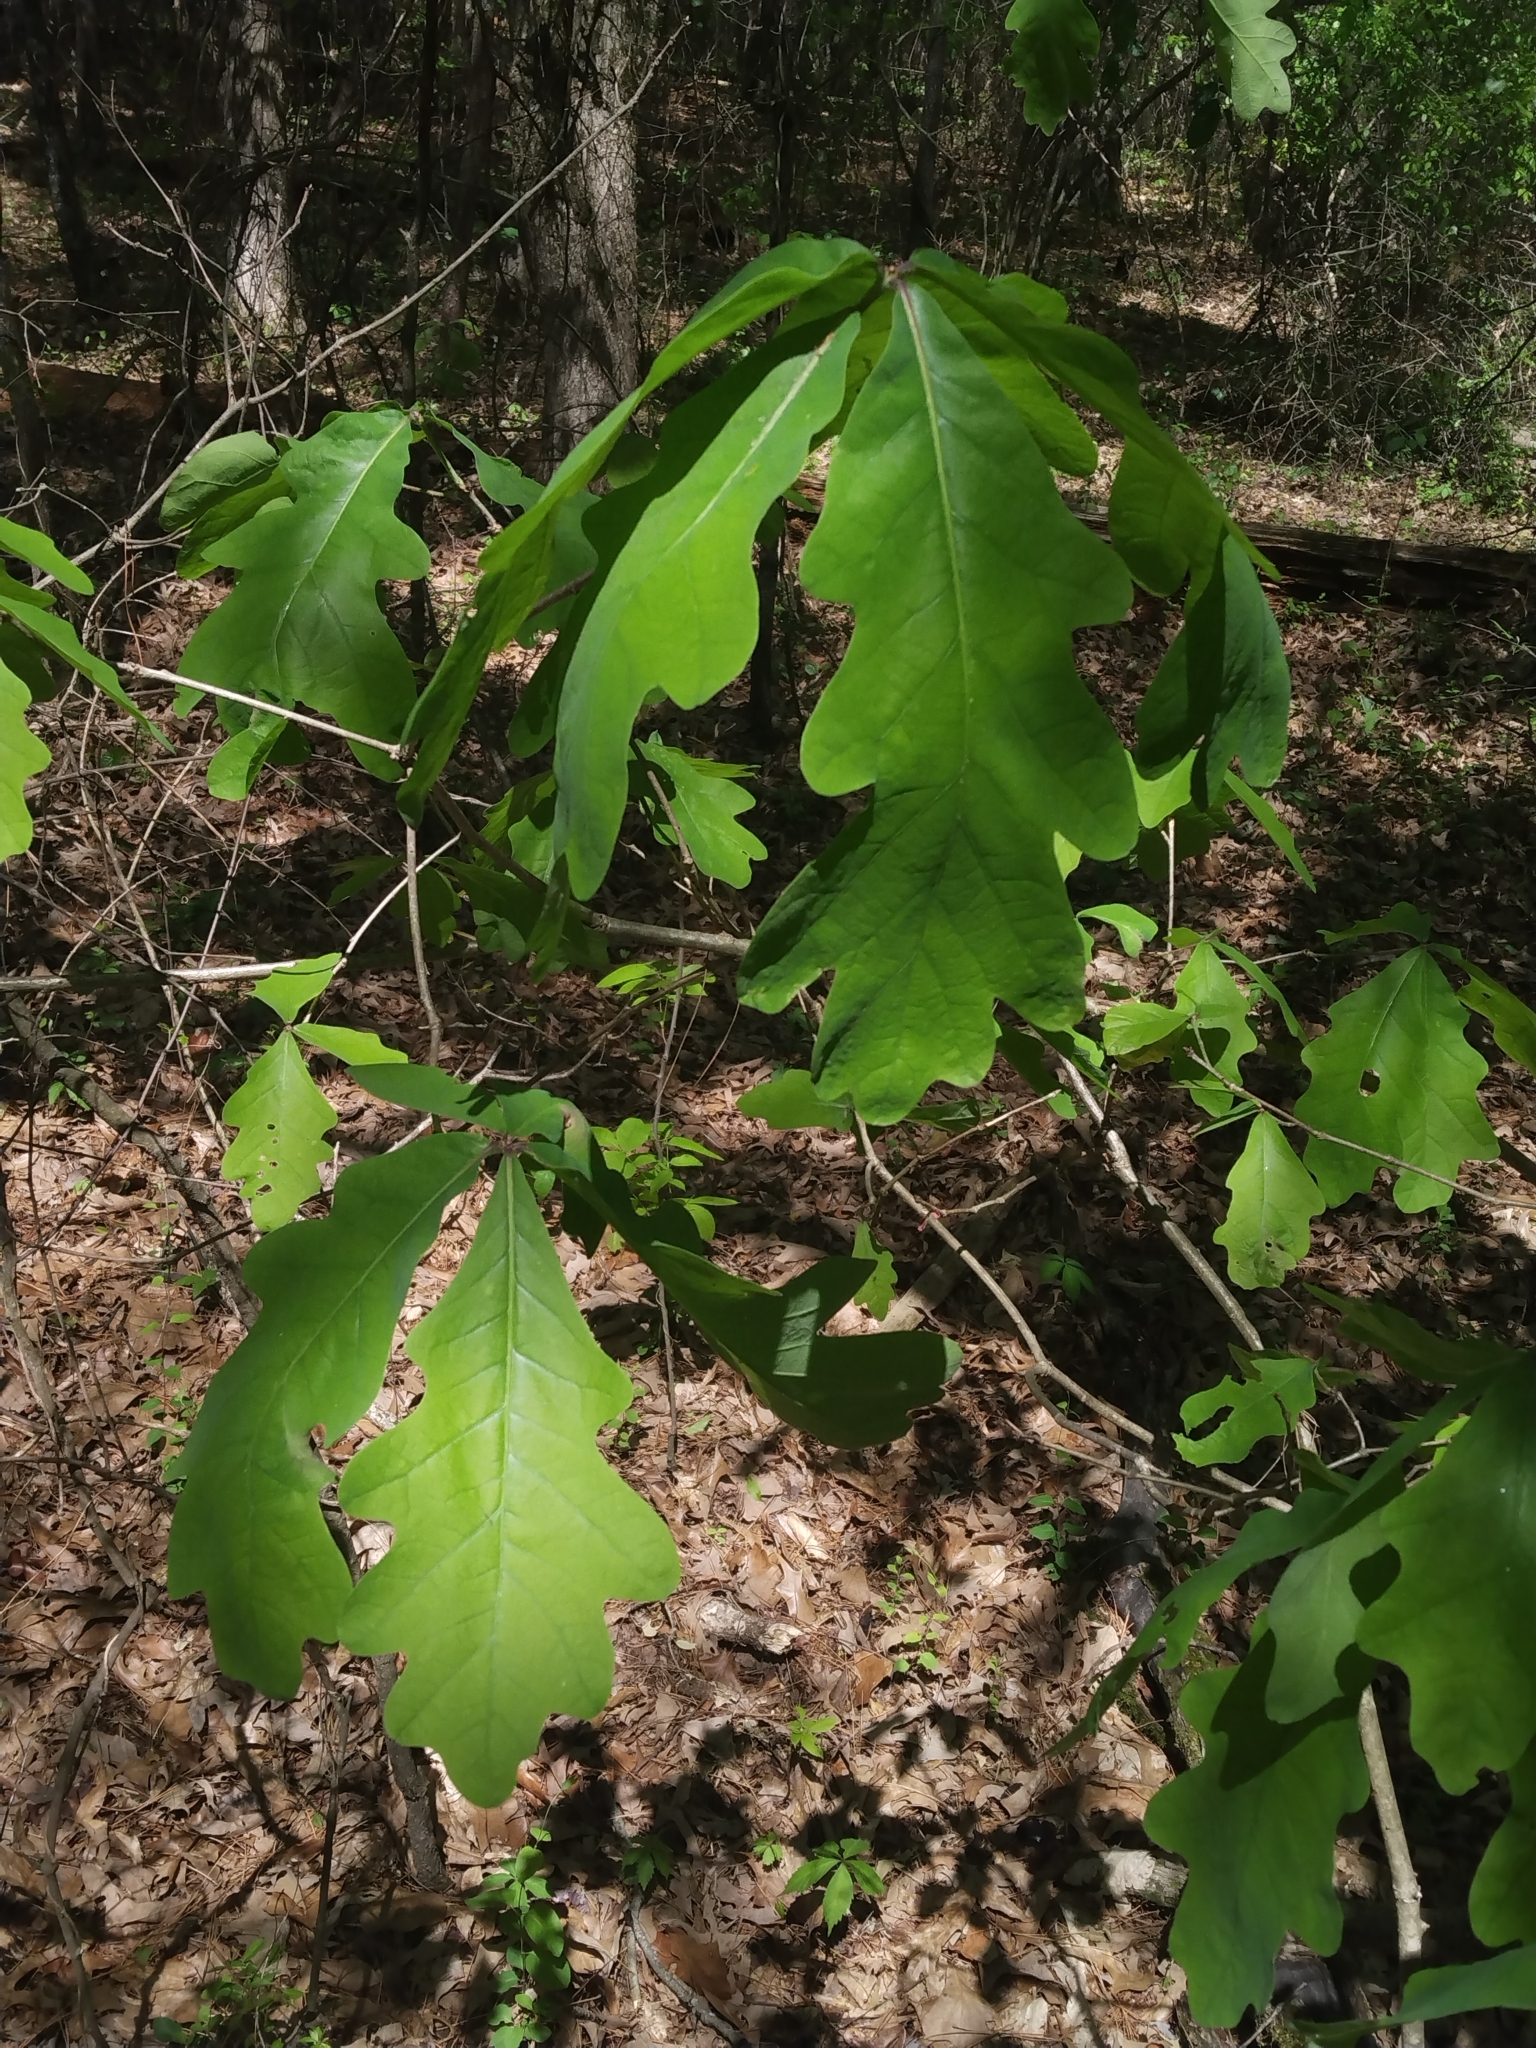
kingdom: Plantae
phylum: Tracheophyta
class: Magnoliopsida
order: Fagales
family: Fagaceae
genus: Quercus
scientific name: Quercus alba
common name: White oak
